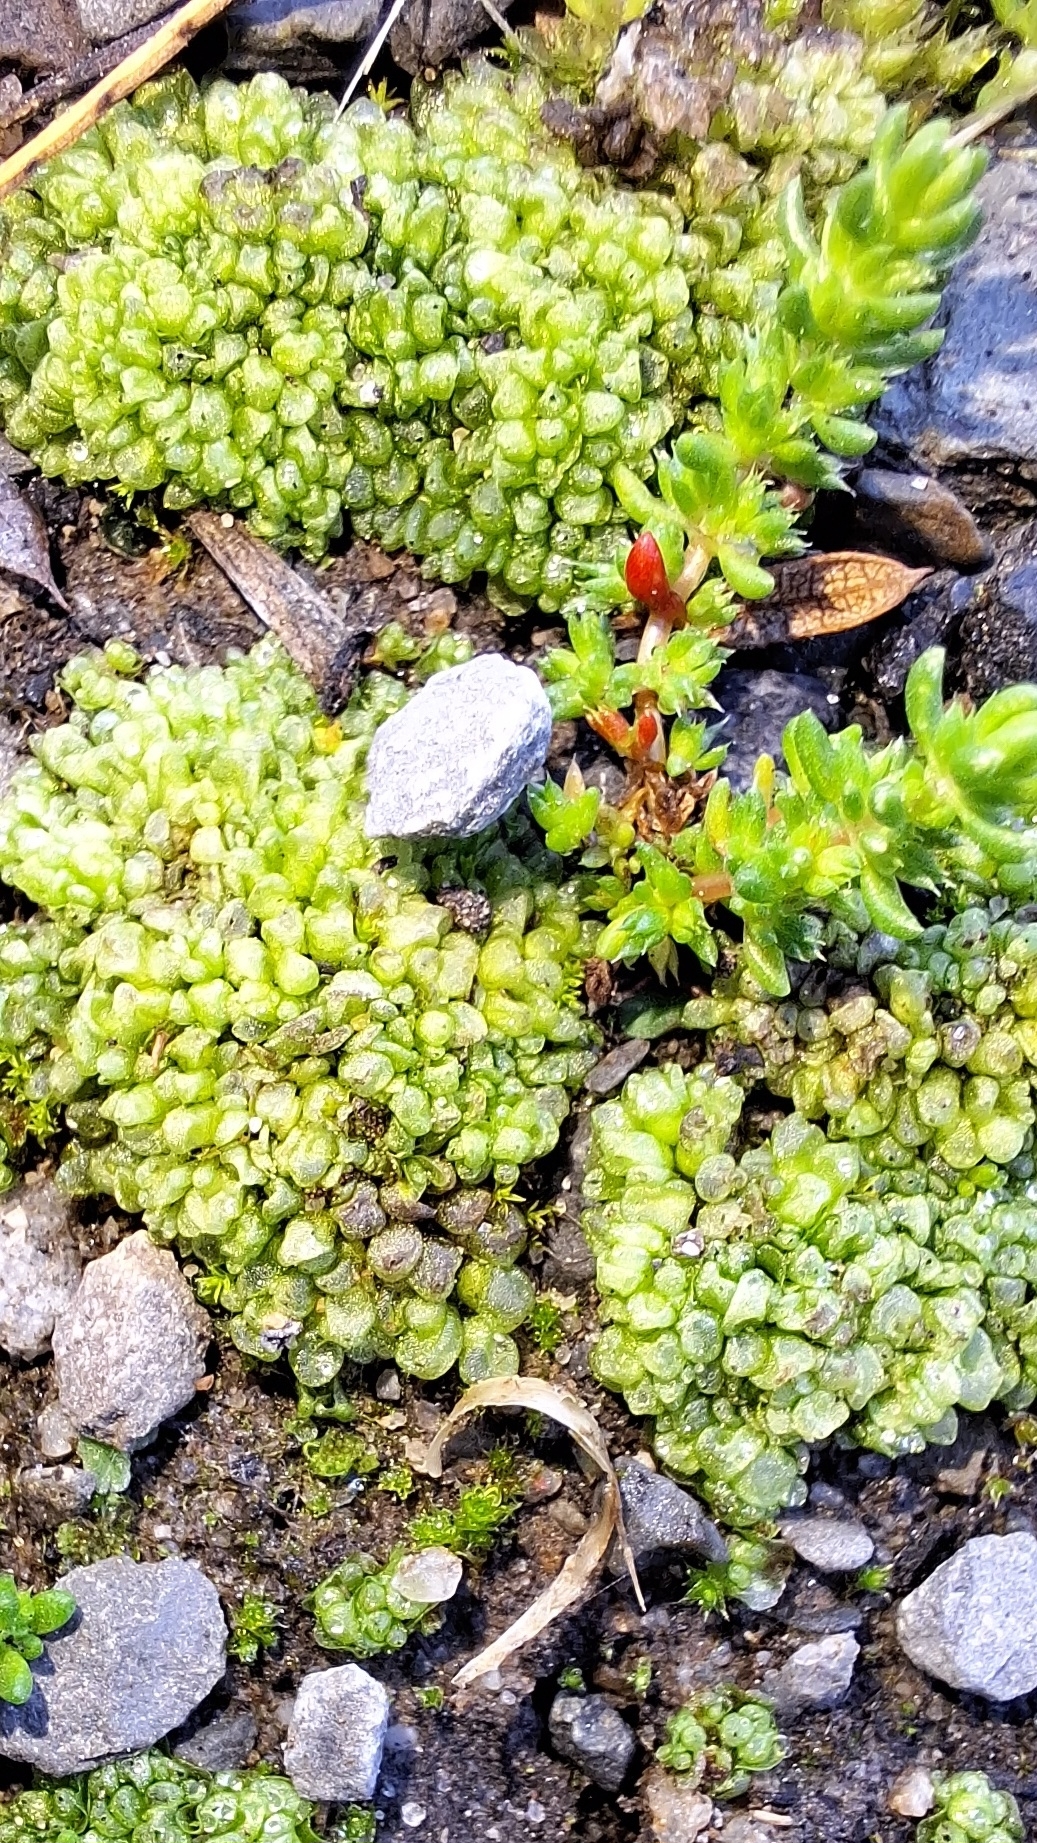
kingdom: Plantae
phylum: Marchantiophyta
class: Marchantiopsida
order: Sphaerocarpales
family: Sphaerocarpaceae
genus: Sphaerocarpos
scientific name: Sphaerocarpos texanus
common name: Texas balloonwort
